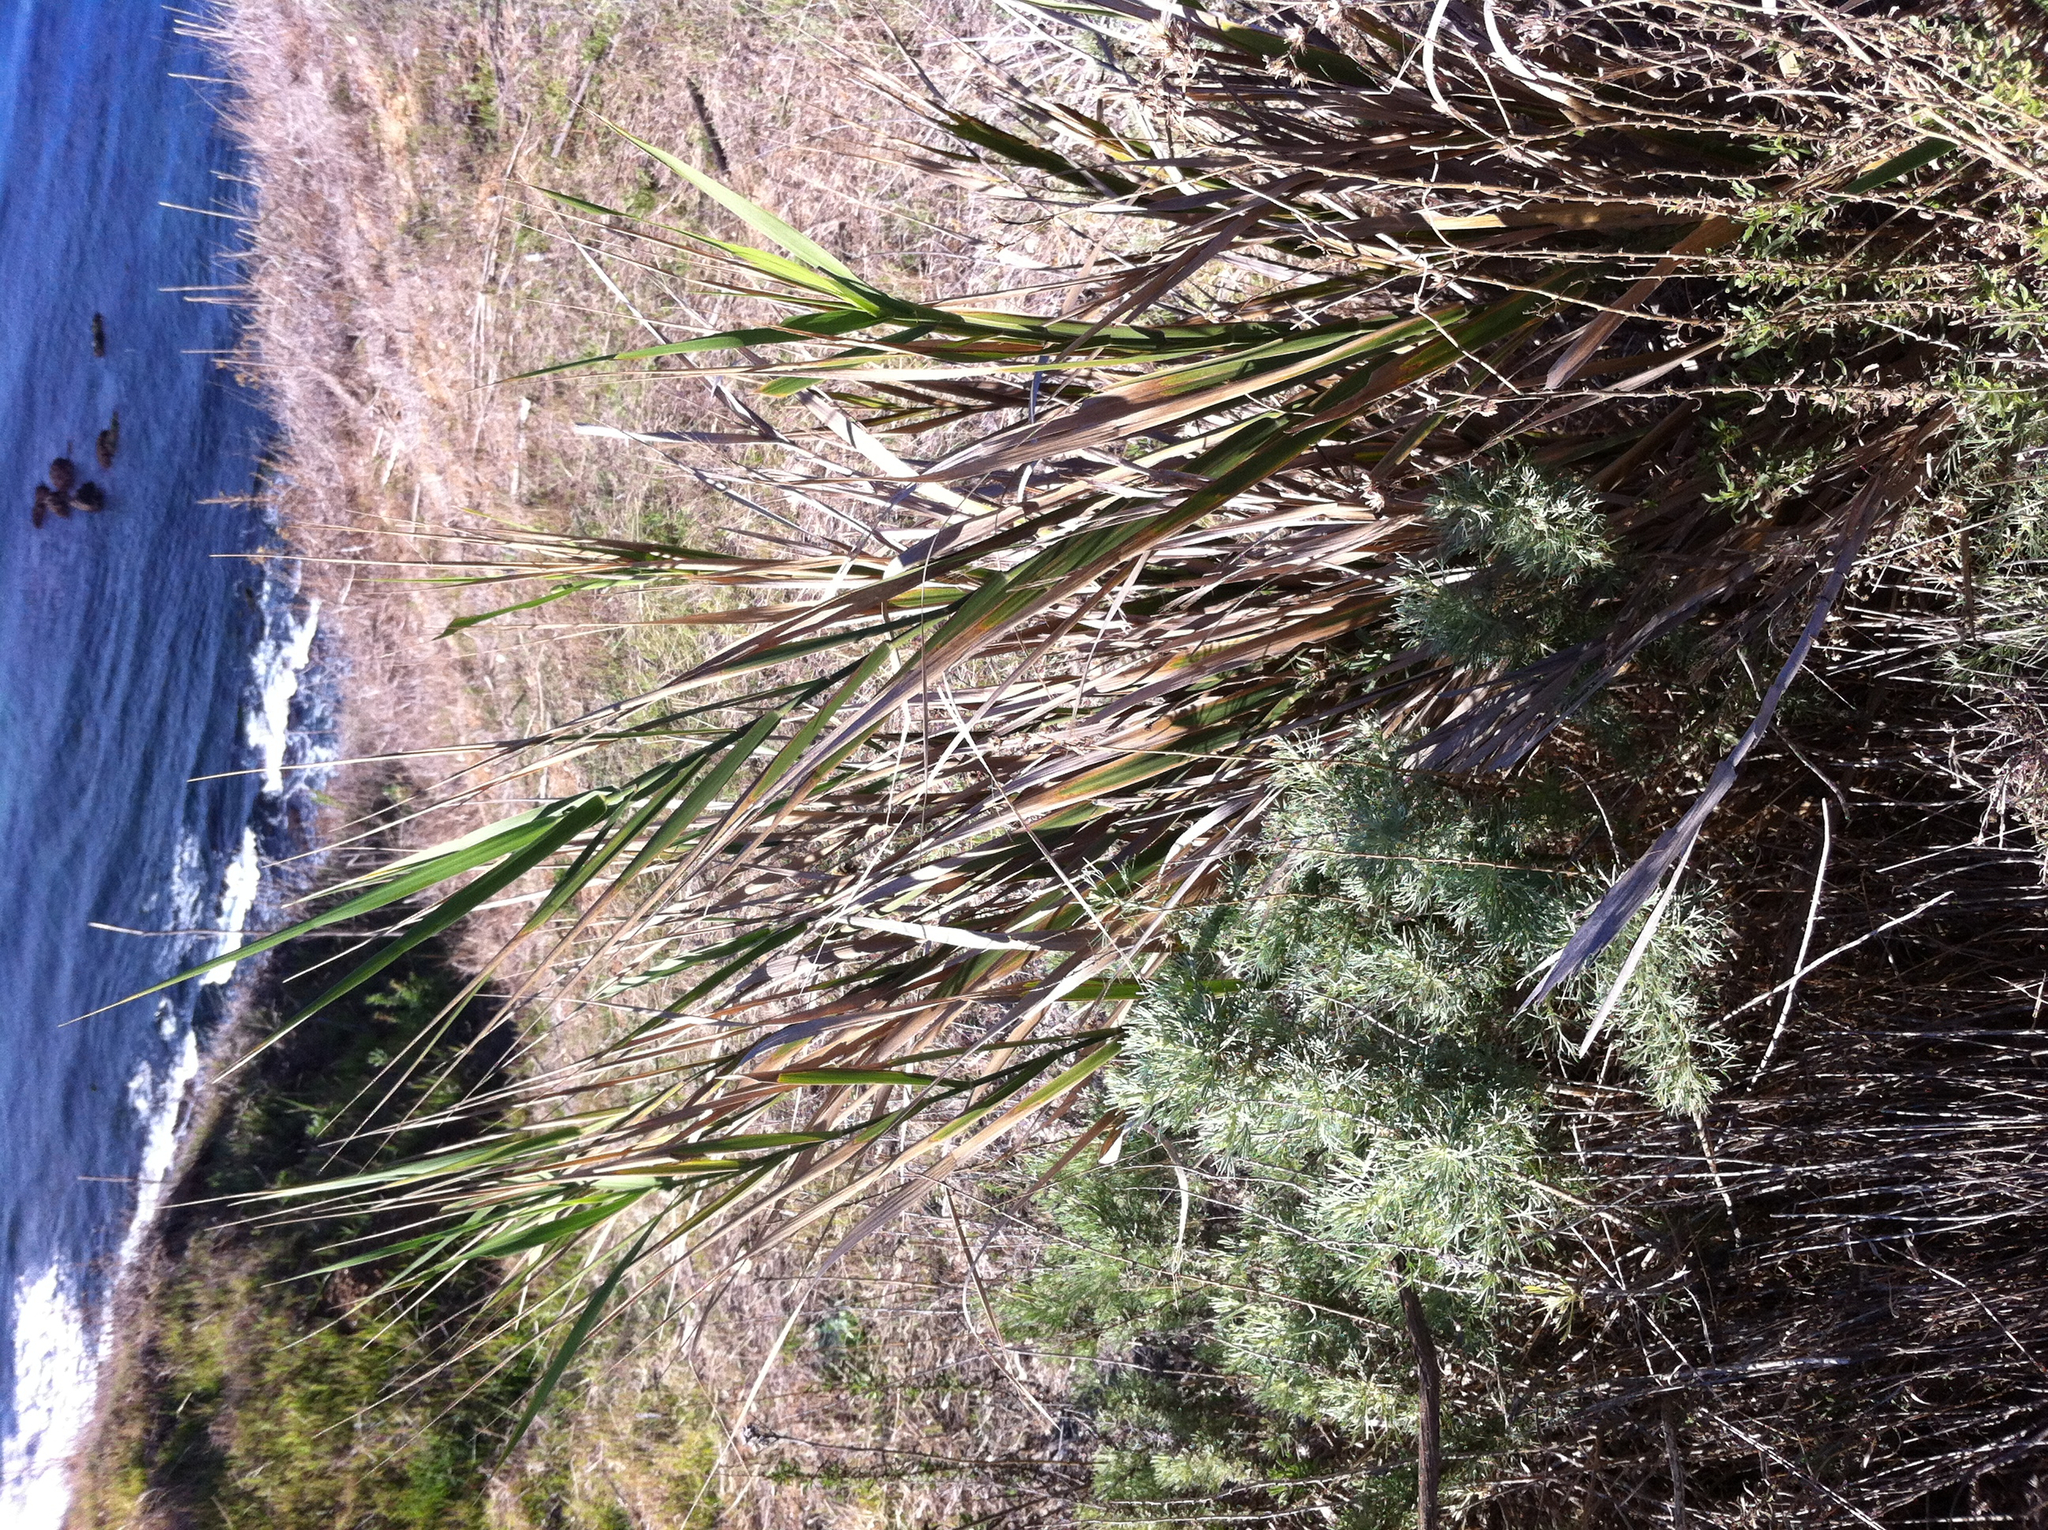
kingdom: Plantae
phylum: Tracheophyta
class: Liliopsida
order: Poales
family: Poaceae
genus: Leymus
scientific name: Leymus condensatus
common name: Giant wild rye
